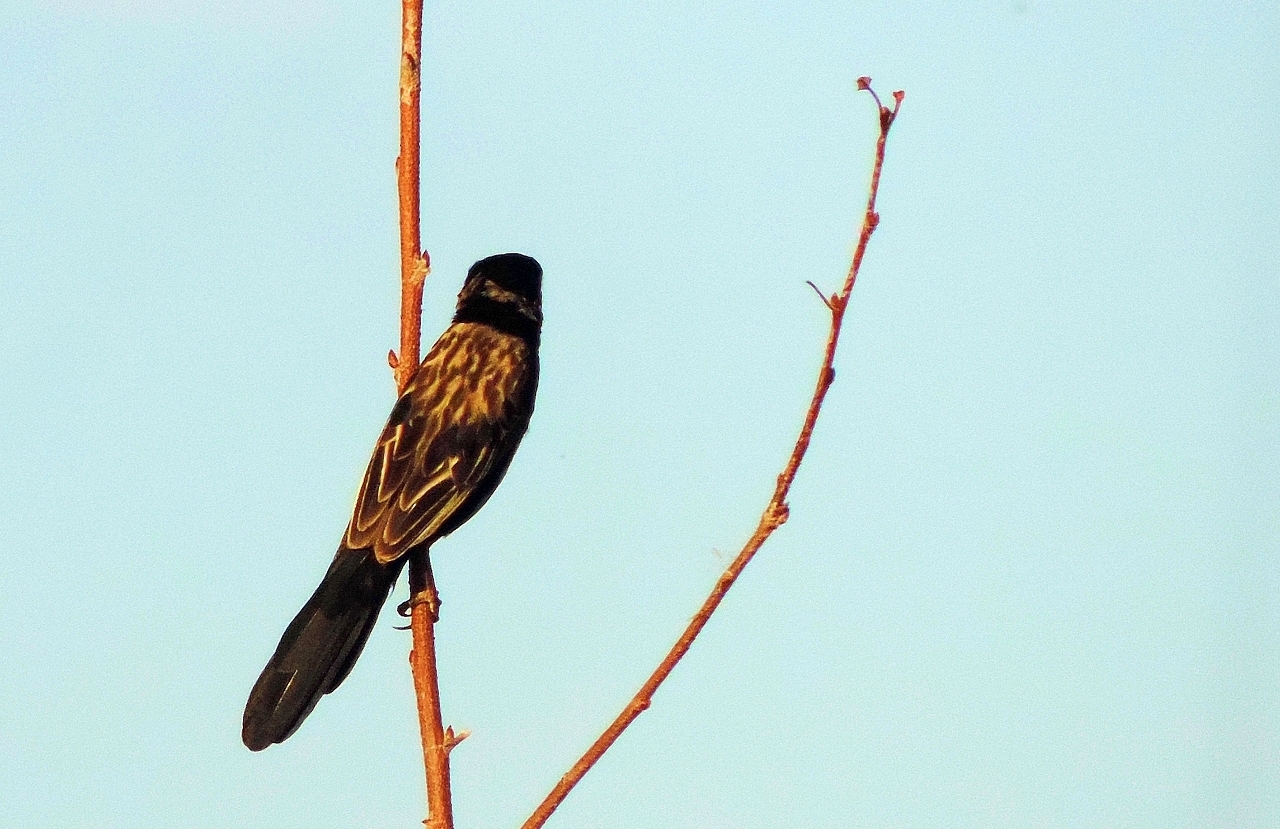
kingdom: Animalia
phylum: Chordata
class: Aves
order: Passeriformes
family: Ploceidae
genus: Euplectes
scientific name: Euplectes macroura
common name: Yellow-mantled widowbird
